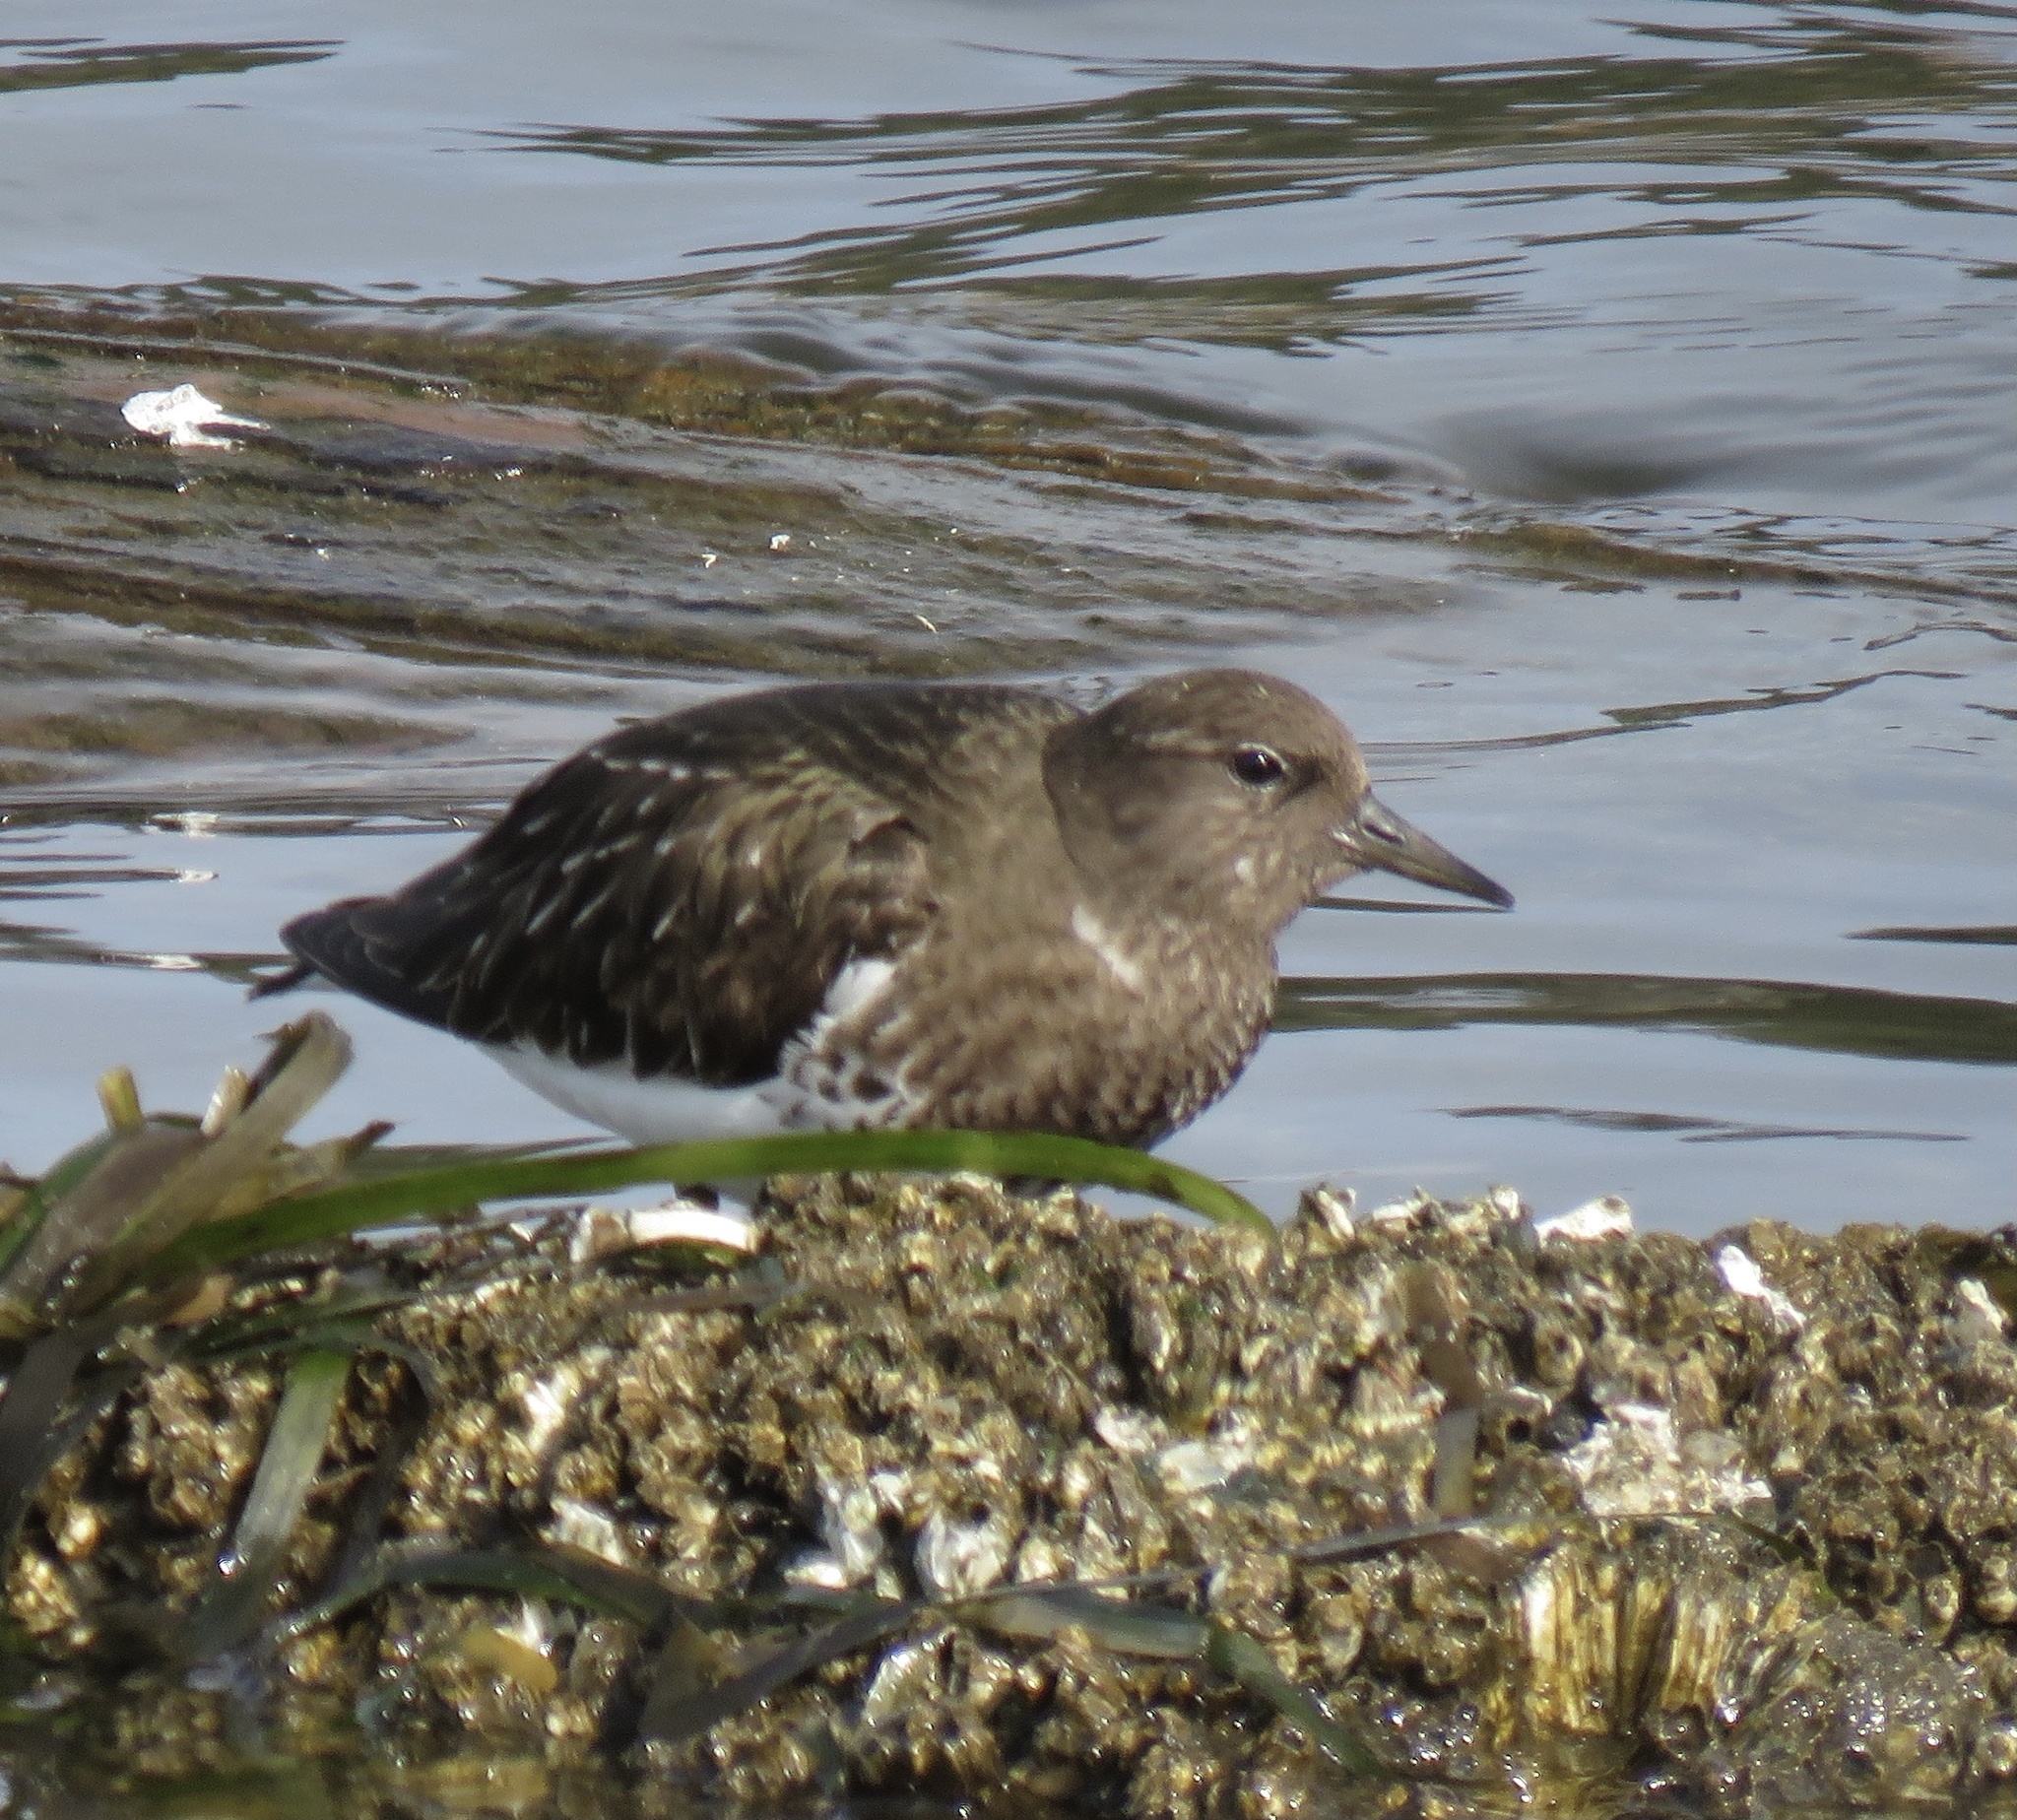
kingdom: Animalia
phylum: Chordata
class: Aves
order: Charadriiformes
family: Scolopacidae
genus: Arenaria
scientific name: Arenaria melanocephala
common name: Black turnstone
